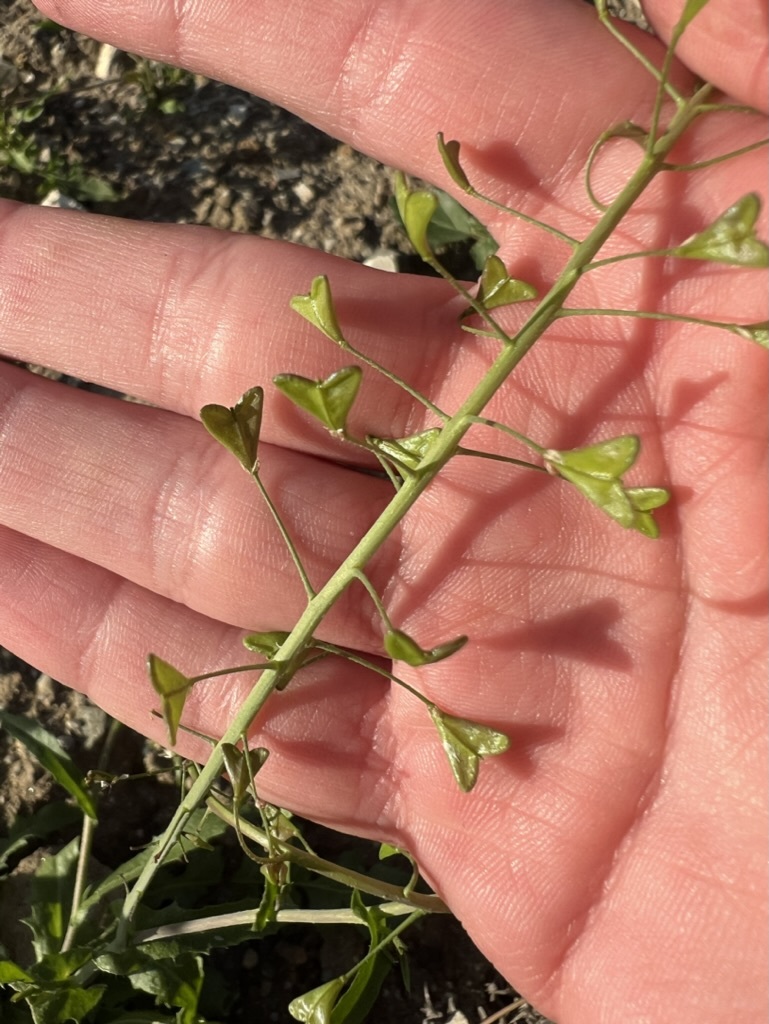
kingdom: Plantae
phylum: Tracheophyta
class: Magnoliopsida
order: Brassicales
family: Brassicaceae
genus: Capsella
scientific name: Capsella bursa-pastoris
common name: Shepherd's purse
